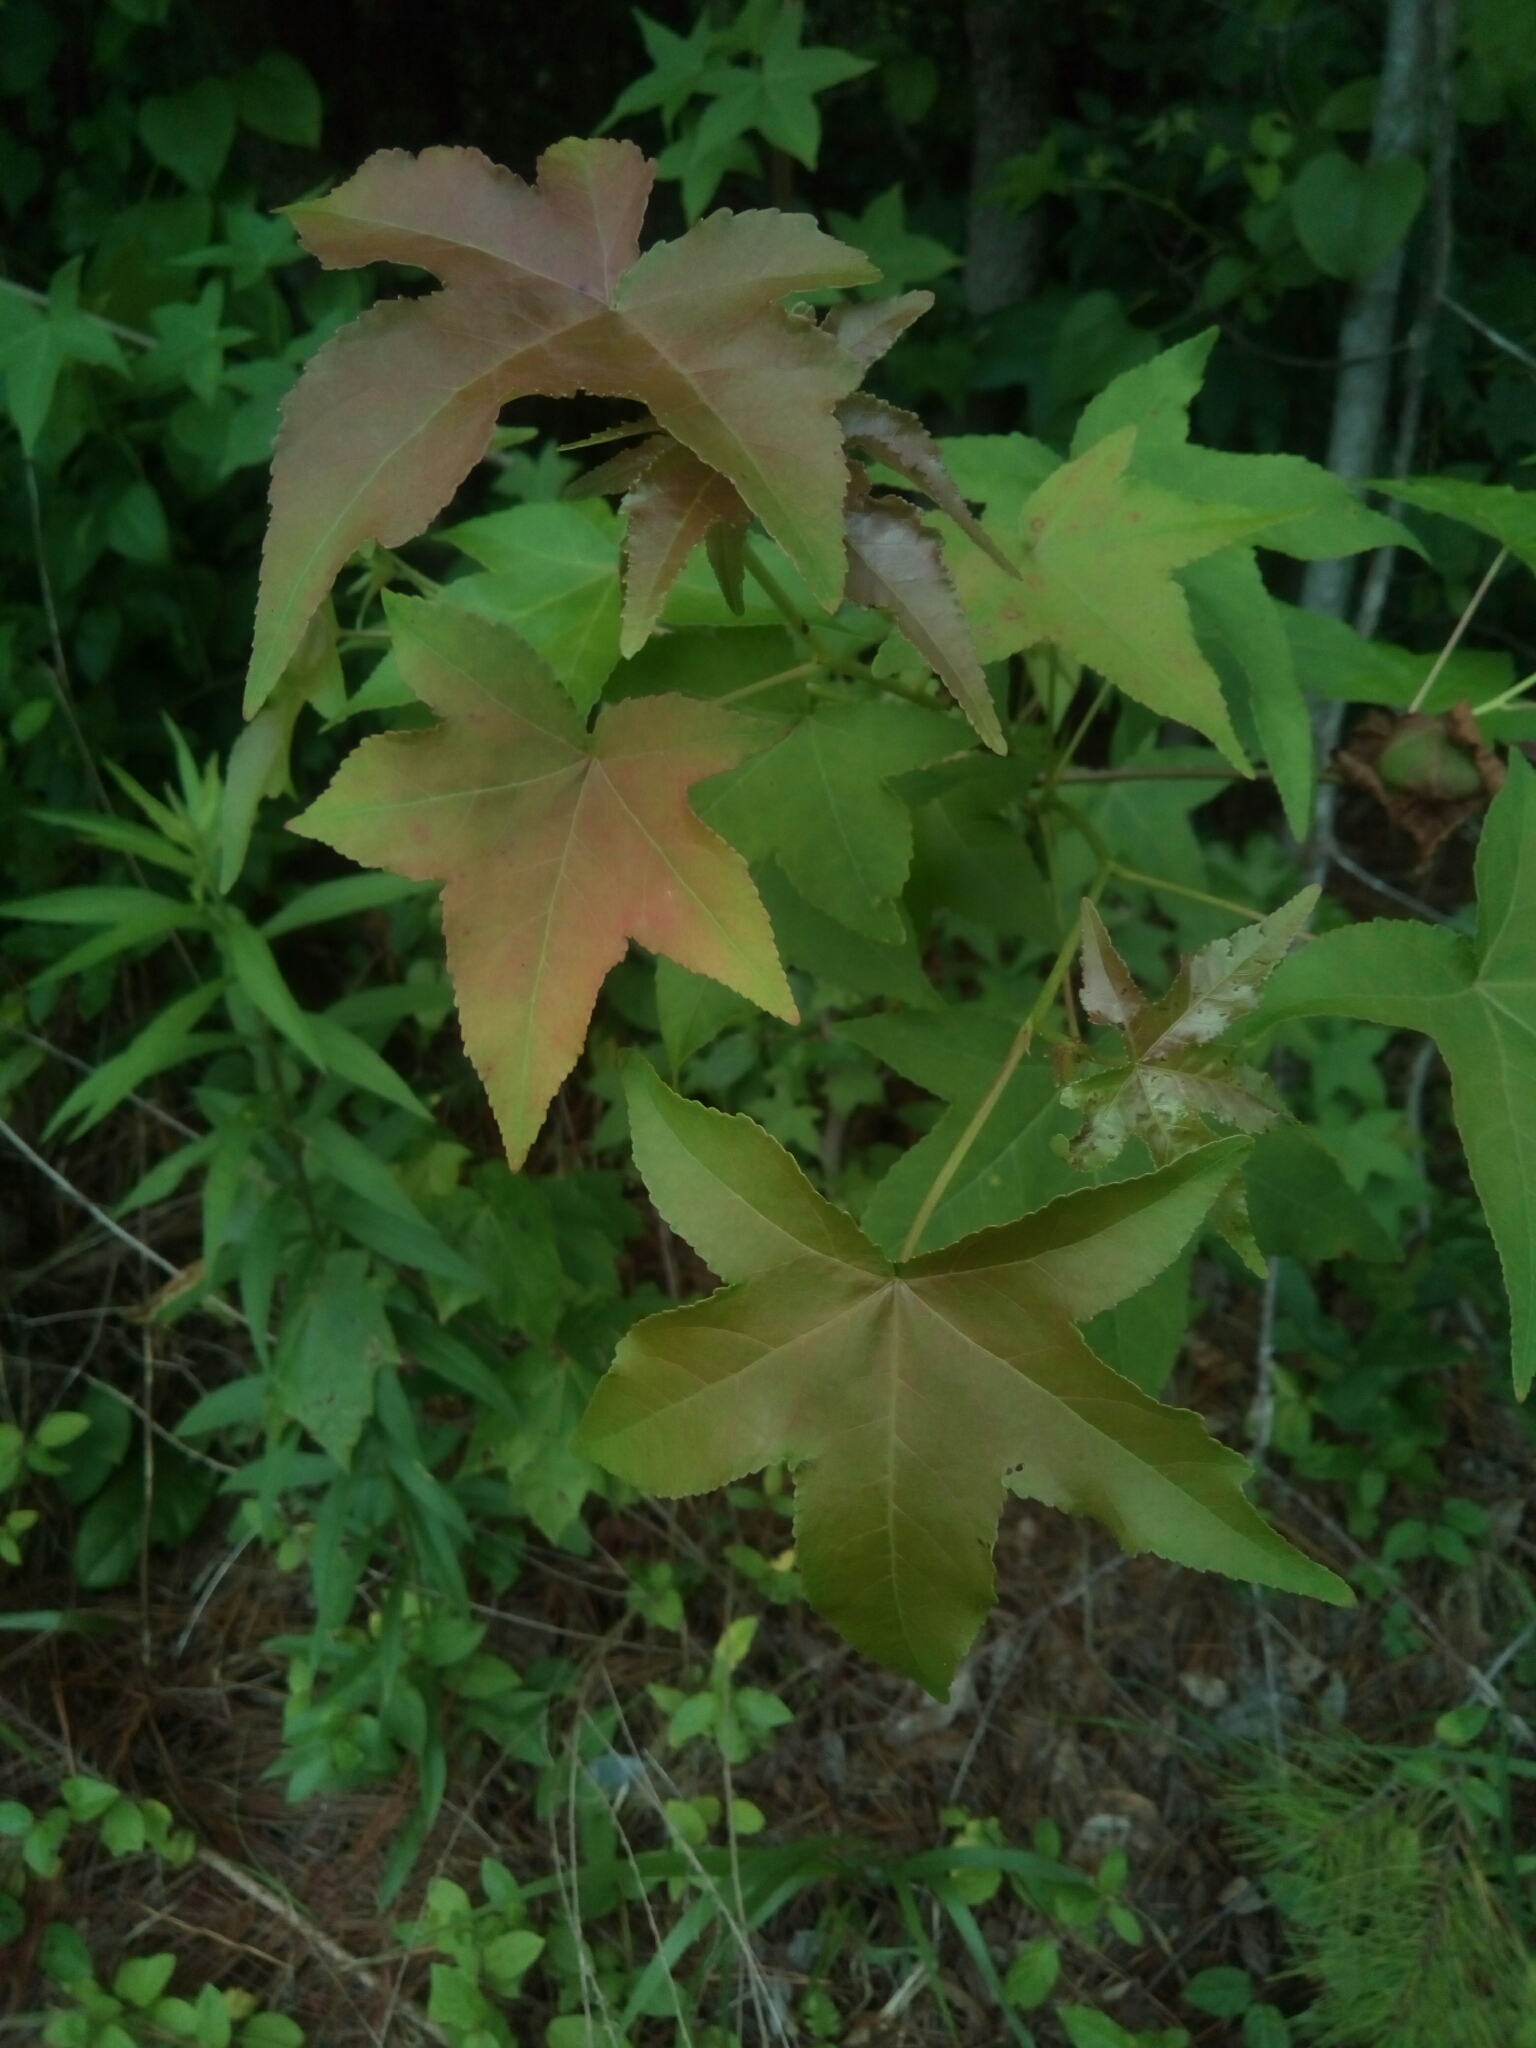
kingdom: Plantae
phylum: Tracheophyta
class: Magnoliopsida
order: Saxifragales
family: Altingiaceae
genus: Liquidambar
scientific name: Liquidambar styraciflua
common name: Sweet gum
